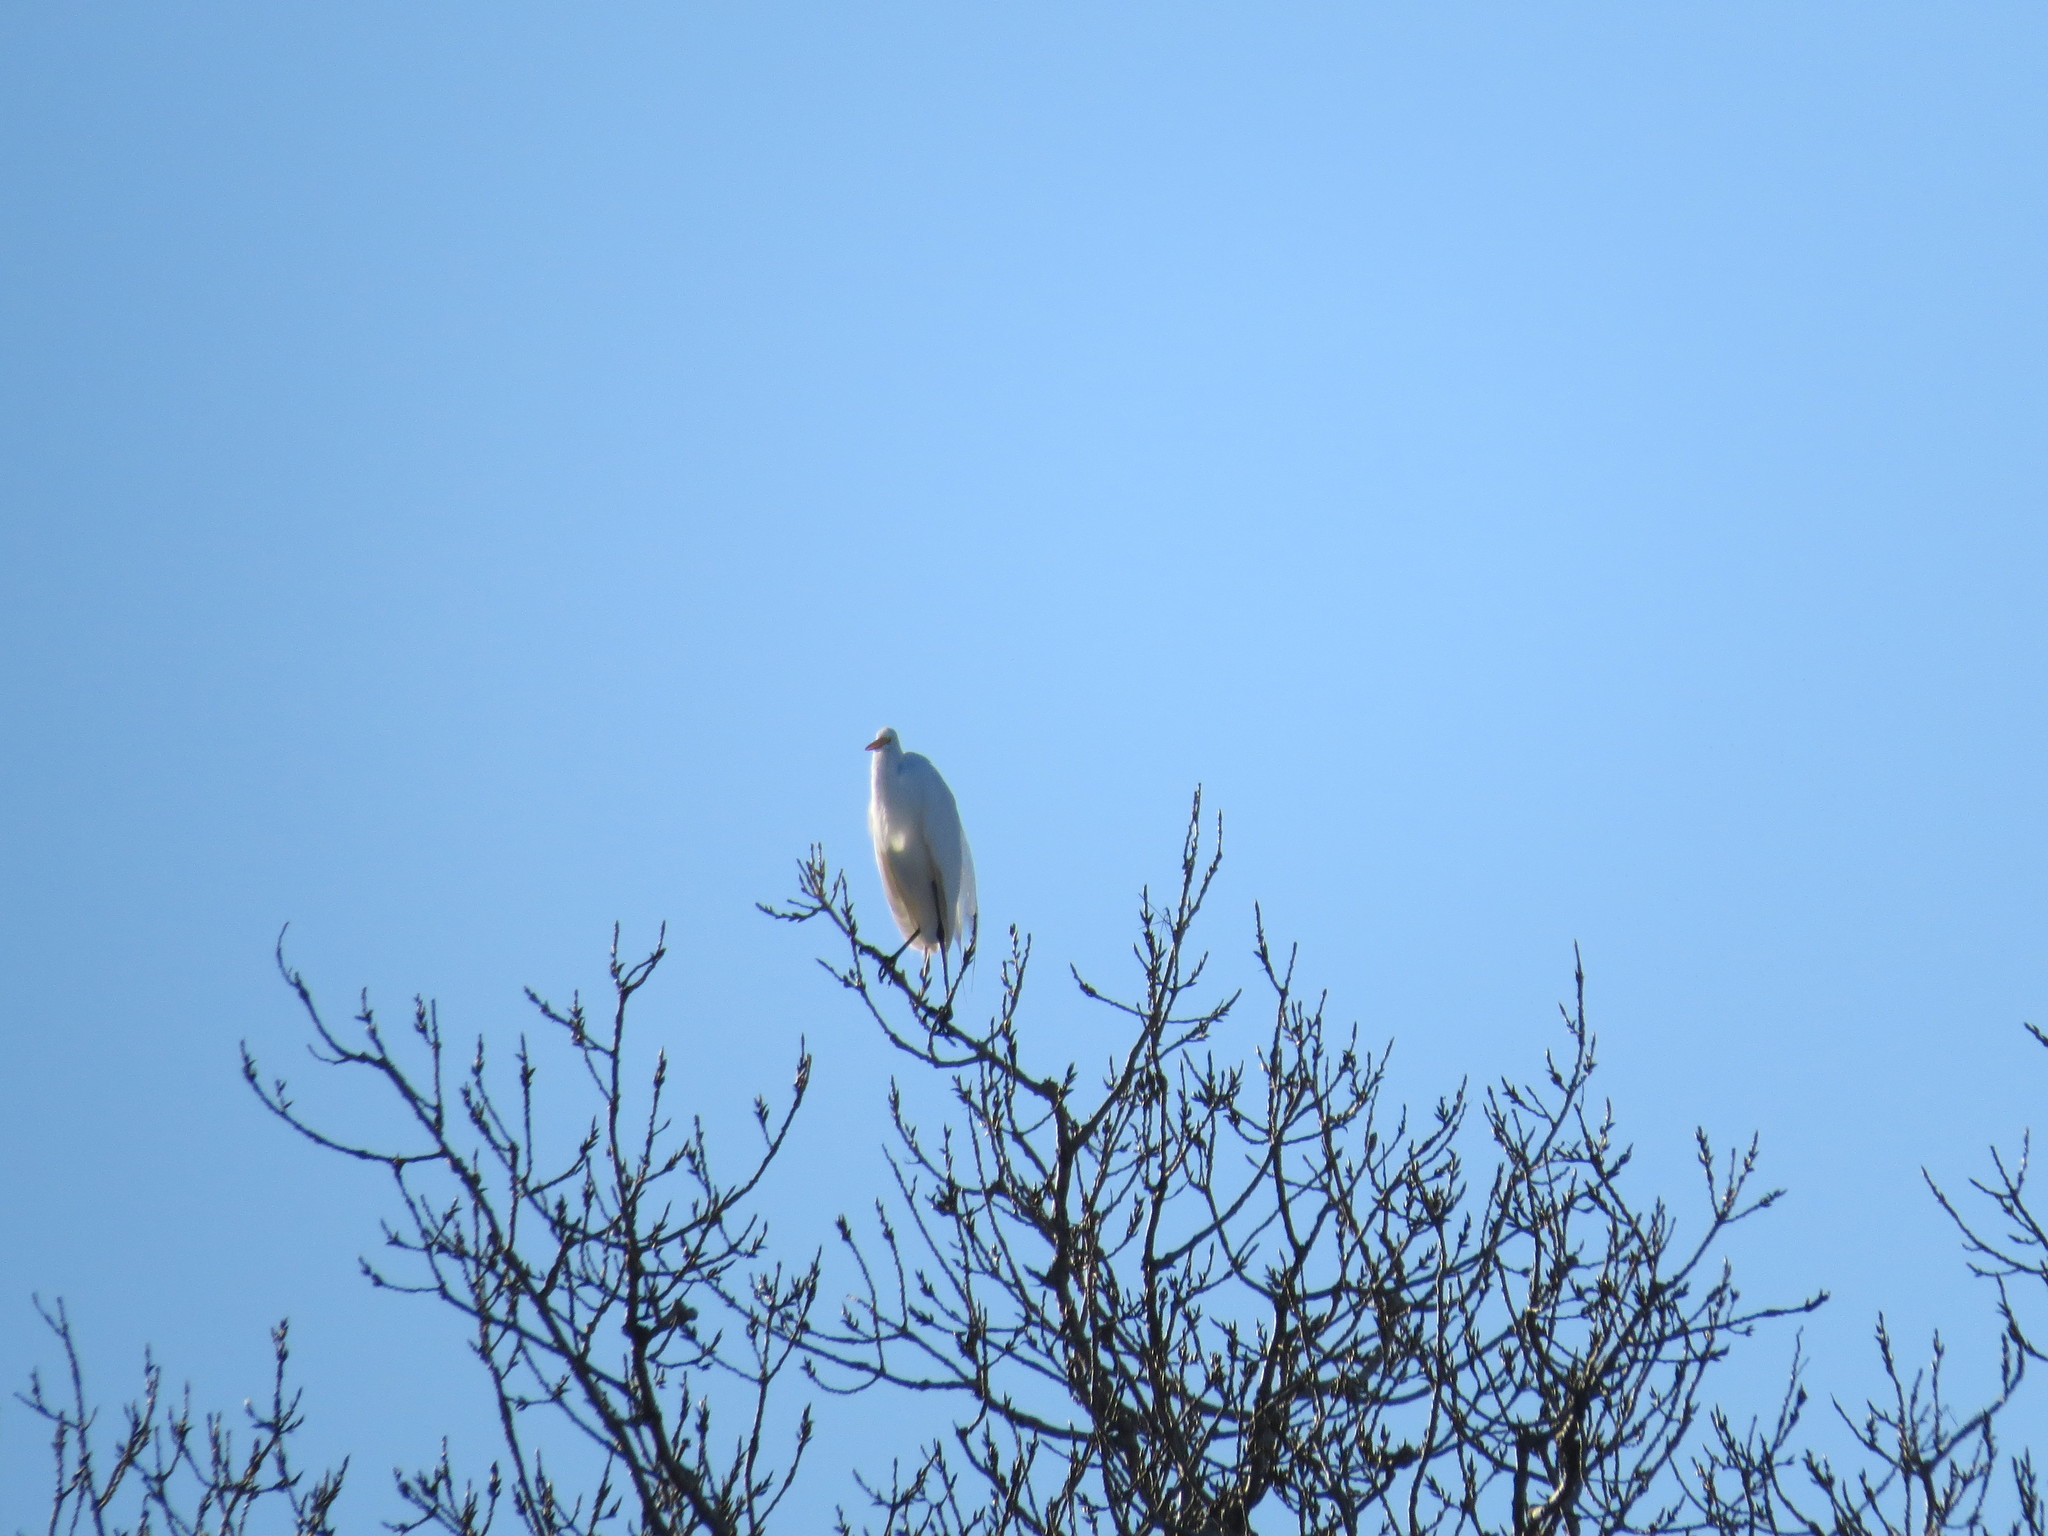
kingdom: Animalia
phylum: Chordata
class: Aves
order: Pelecaniformes
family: Ardeidae
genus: Ardea
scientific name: Ardea alba
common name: Great egret
